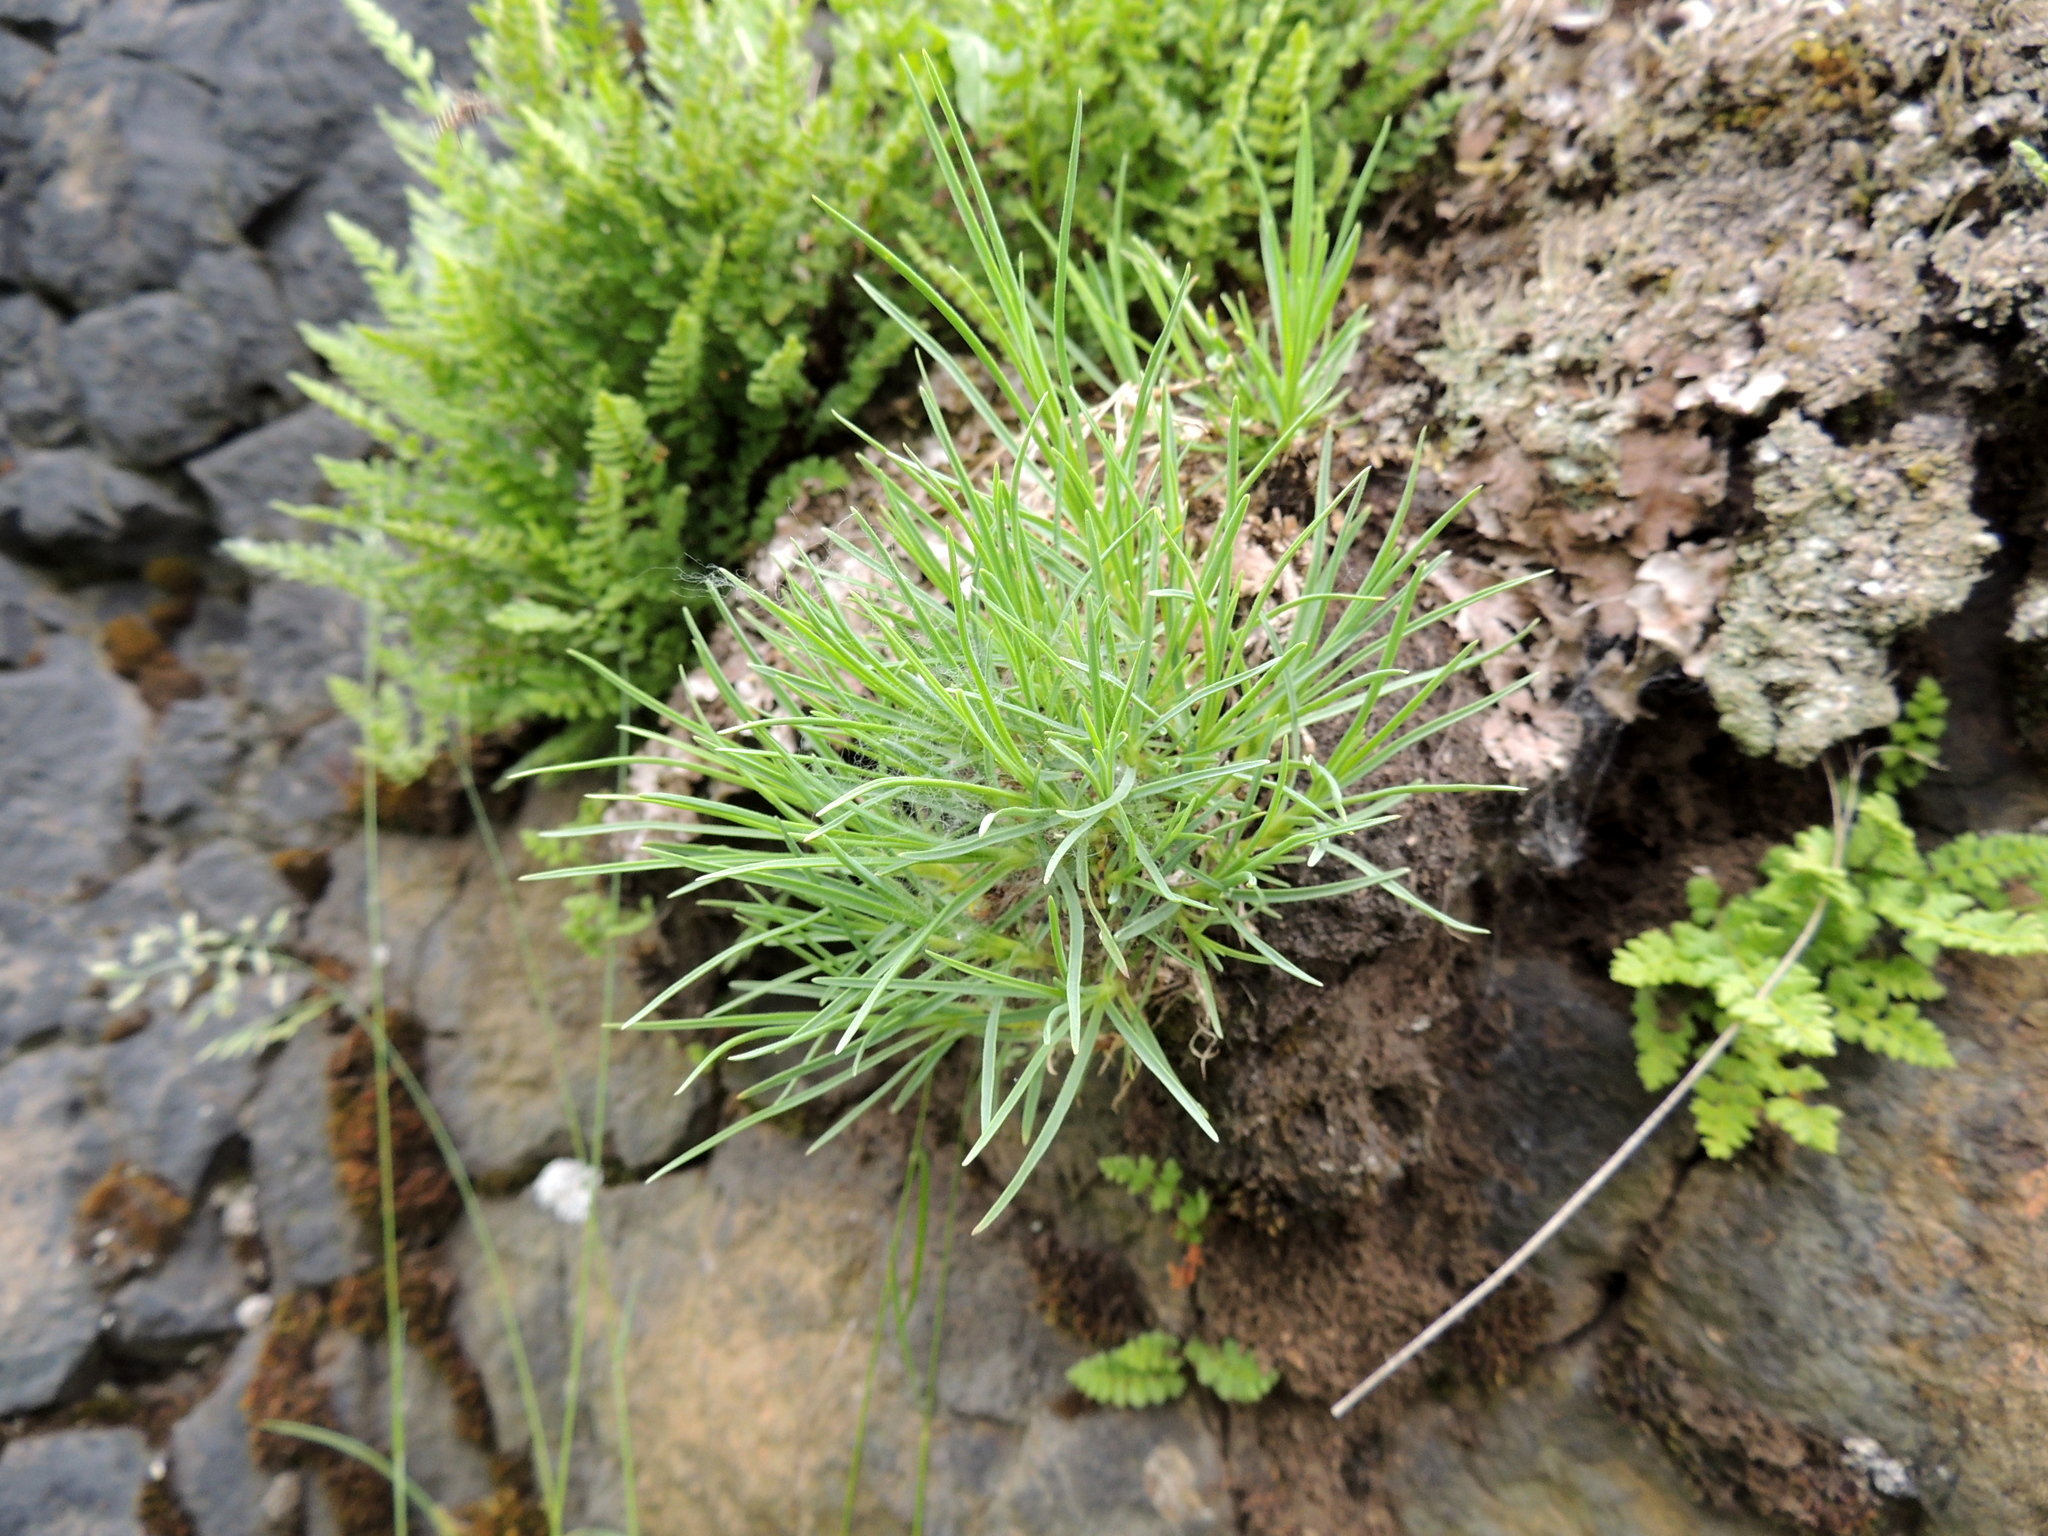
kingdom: Plantae
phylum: Tracheophyta
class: Magnoliopsida
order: Caryophyllales
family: Caryophyllaceae
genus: Dianthus
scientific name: Dianthus acicularis
